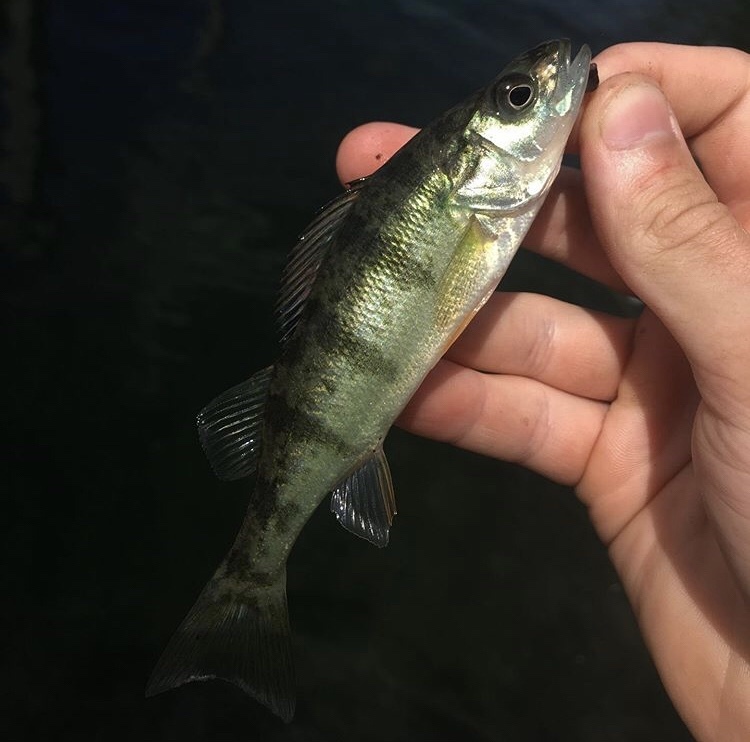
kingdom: Animalia
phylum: Chordata
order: Perciformes
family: Percidae
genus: Perca
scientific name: Perca flavescens
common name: Yellow perch
